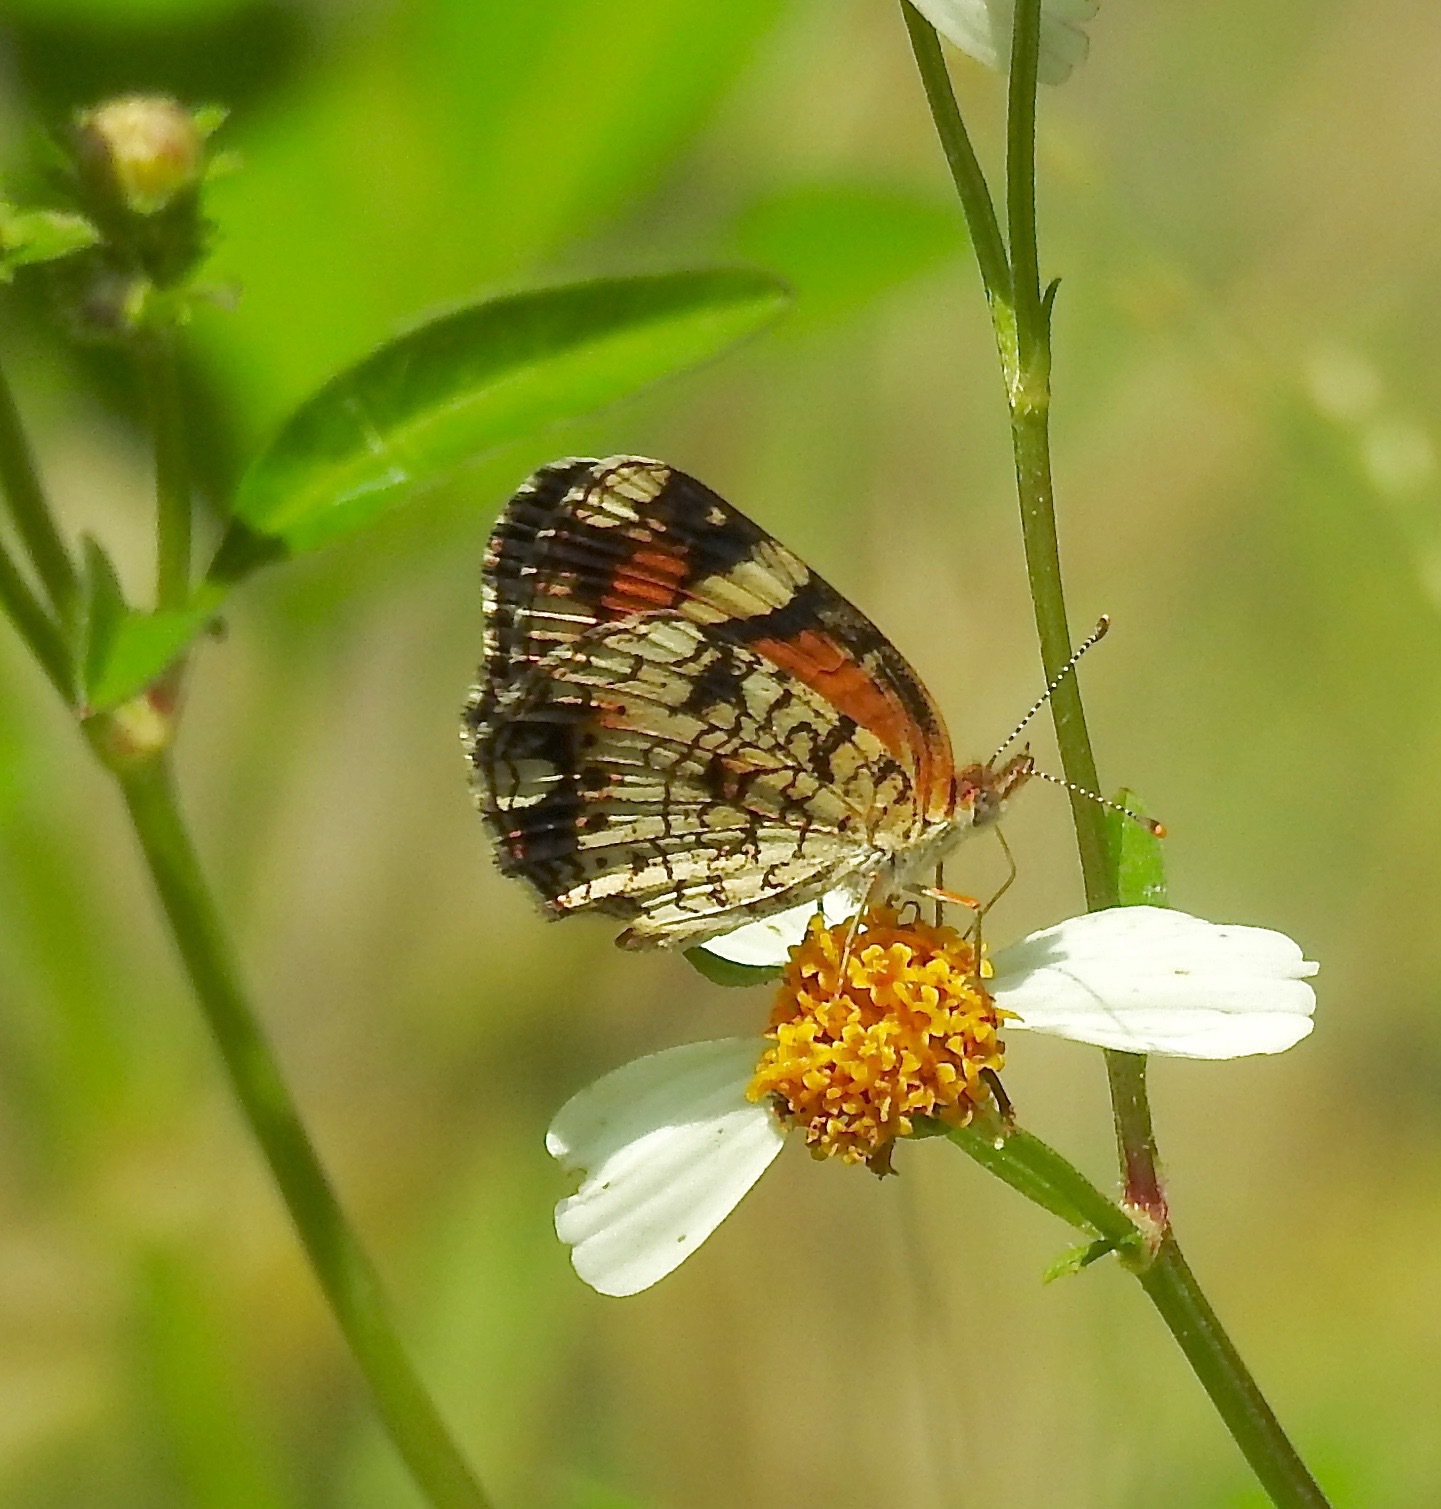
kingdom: Animalia
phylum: Arthropoda
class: Insecta
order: Lepidoptera
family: Nymphalidae
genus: Phyciodes
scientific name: Phyciodes phaon
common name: Phaon crescent
